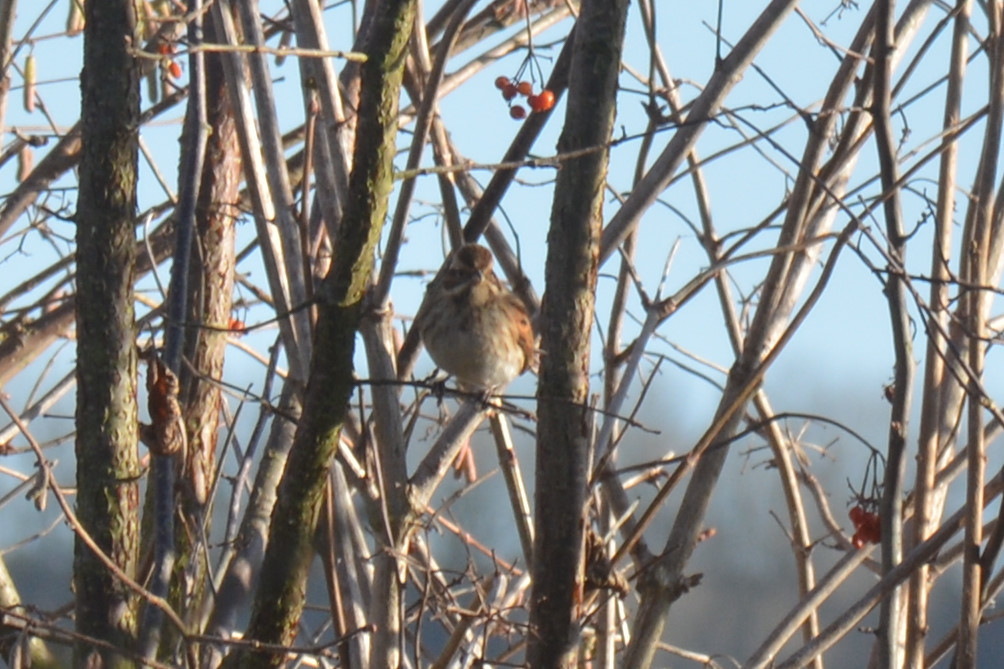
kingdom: Animalia
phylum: Chordata
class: Aves
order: Passeriformes
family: Emberizidae
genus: Emberiza
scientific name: Emberiza schoeniclus
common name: Reed bunting
